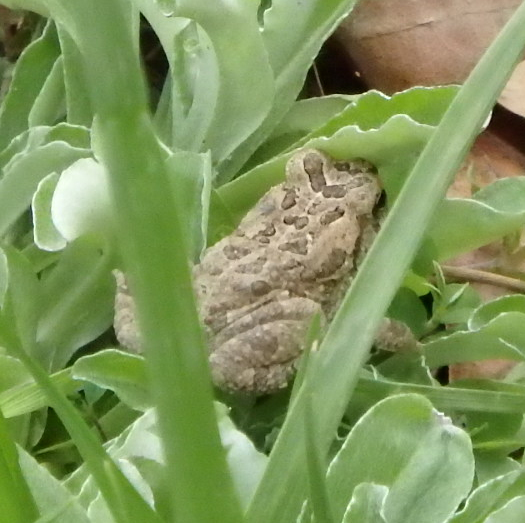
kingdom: Animalia
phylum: Chordata
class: Amphibia
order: Anura
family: Bufonidae
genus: Anaxyrus
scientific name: Anaxyrus fowleri
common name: Fowler's toad
